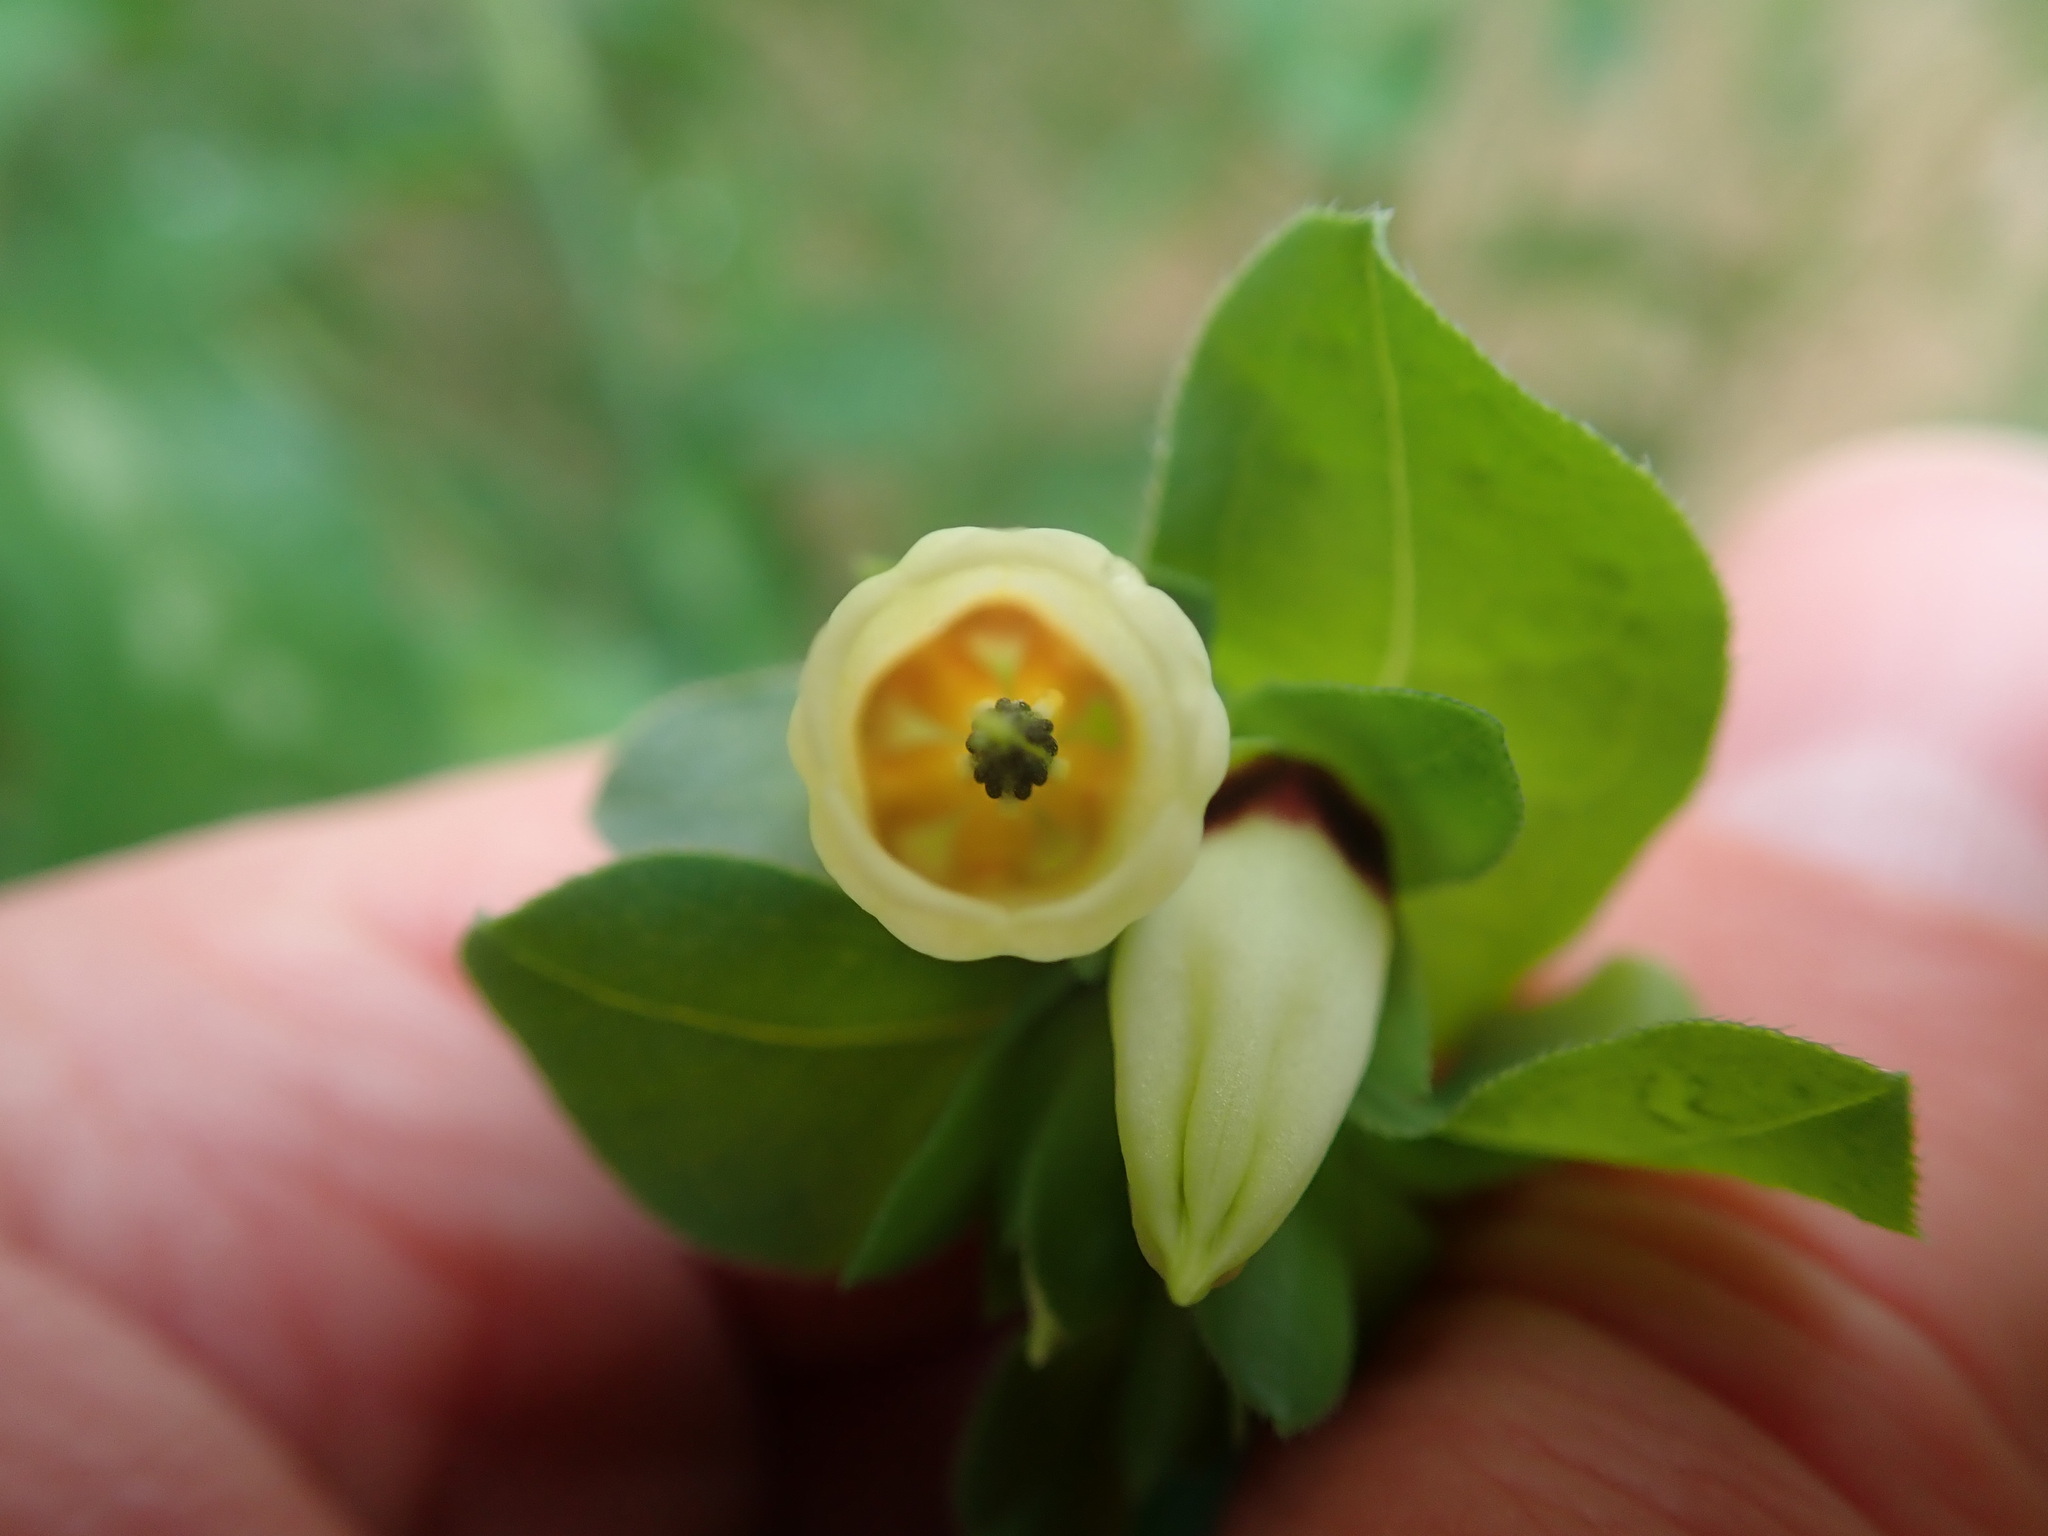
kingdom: Plantae
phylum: Tracheophyta
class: Magnoliopsida
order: Boraginales
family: Boraginaceae
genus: Cerinthe
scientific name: Cerinthe major
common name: Greater honeywort
